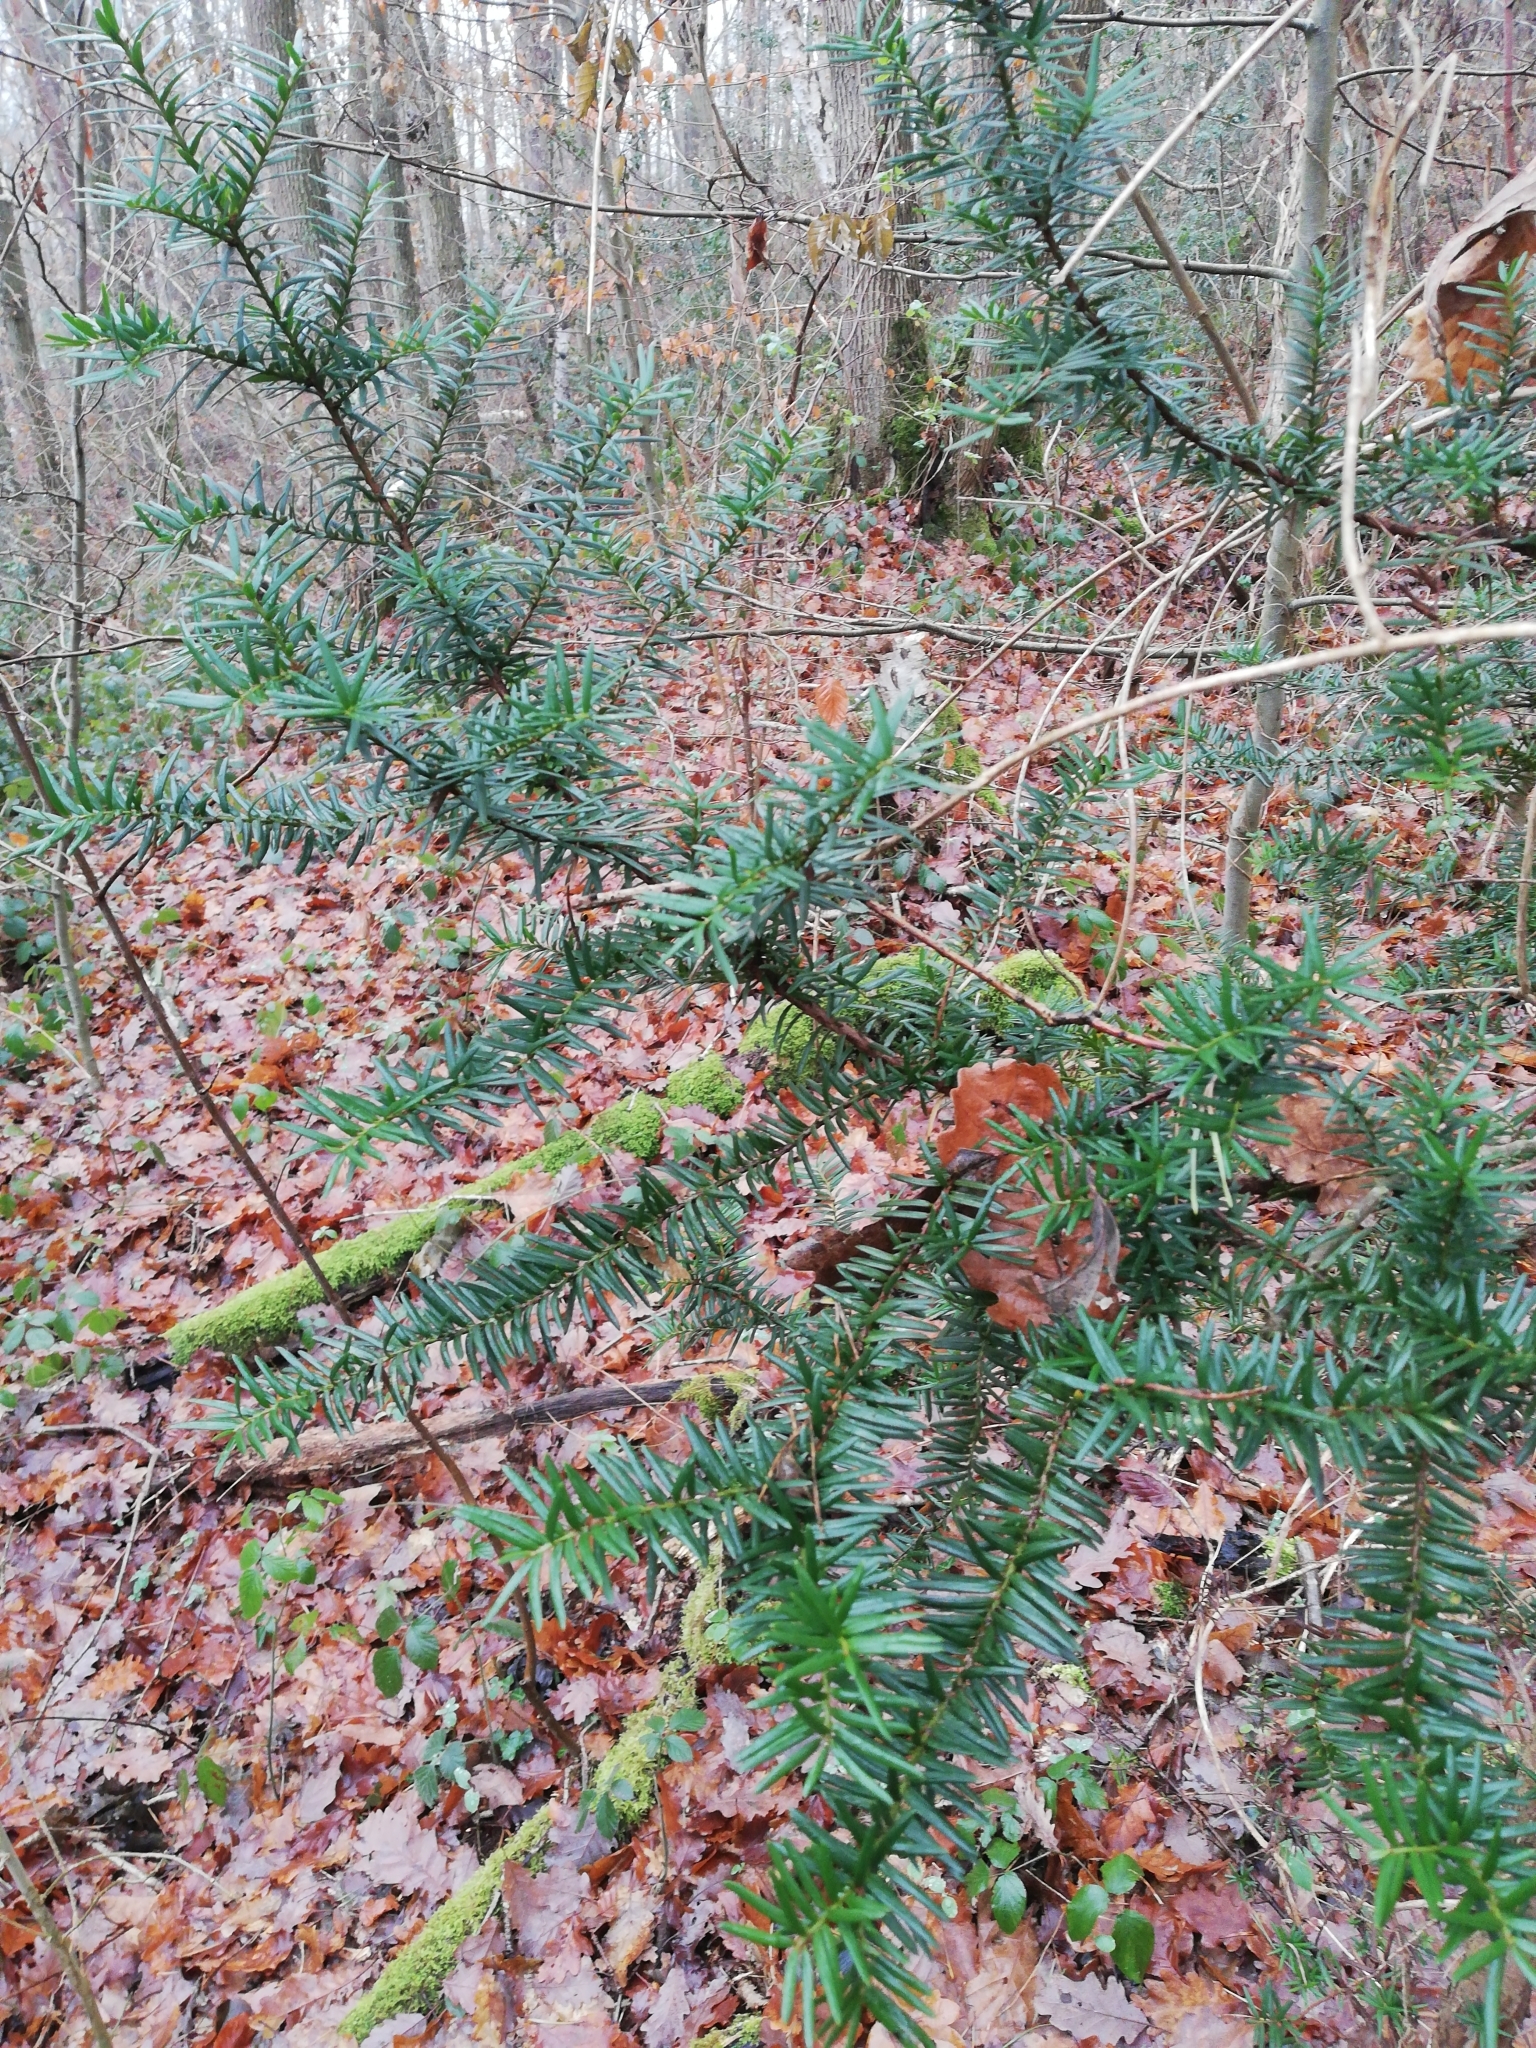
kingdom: Plantae
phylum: Tracheophyta
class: Pinopsida
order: Pinales
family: Taxaceae
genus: Taxus
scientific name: Taxus baccata
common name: Yew
